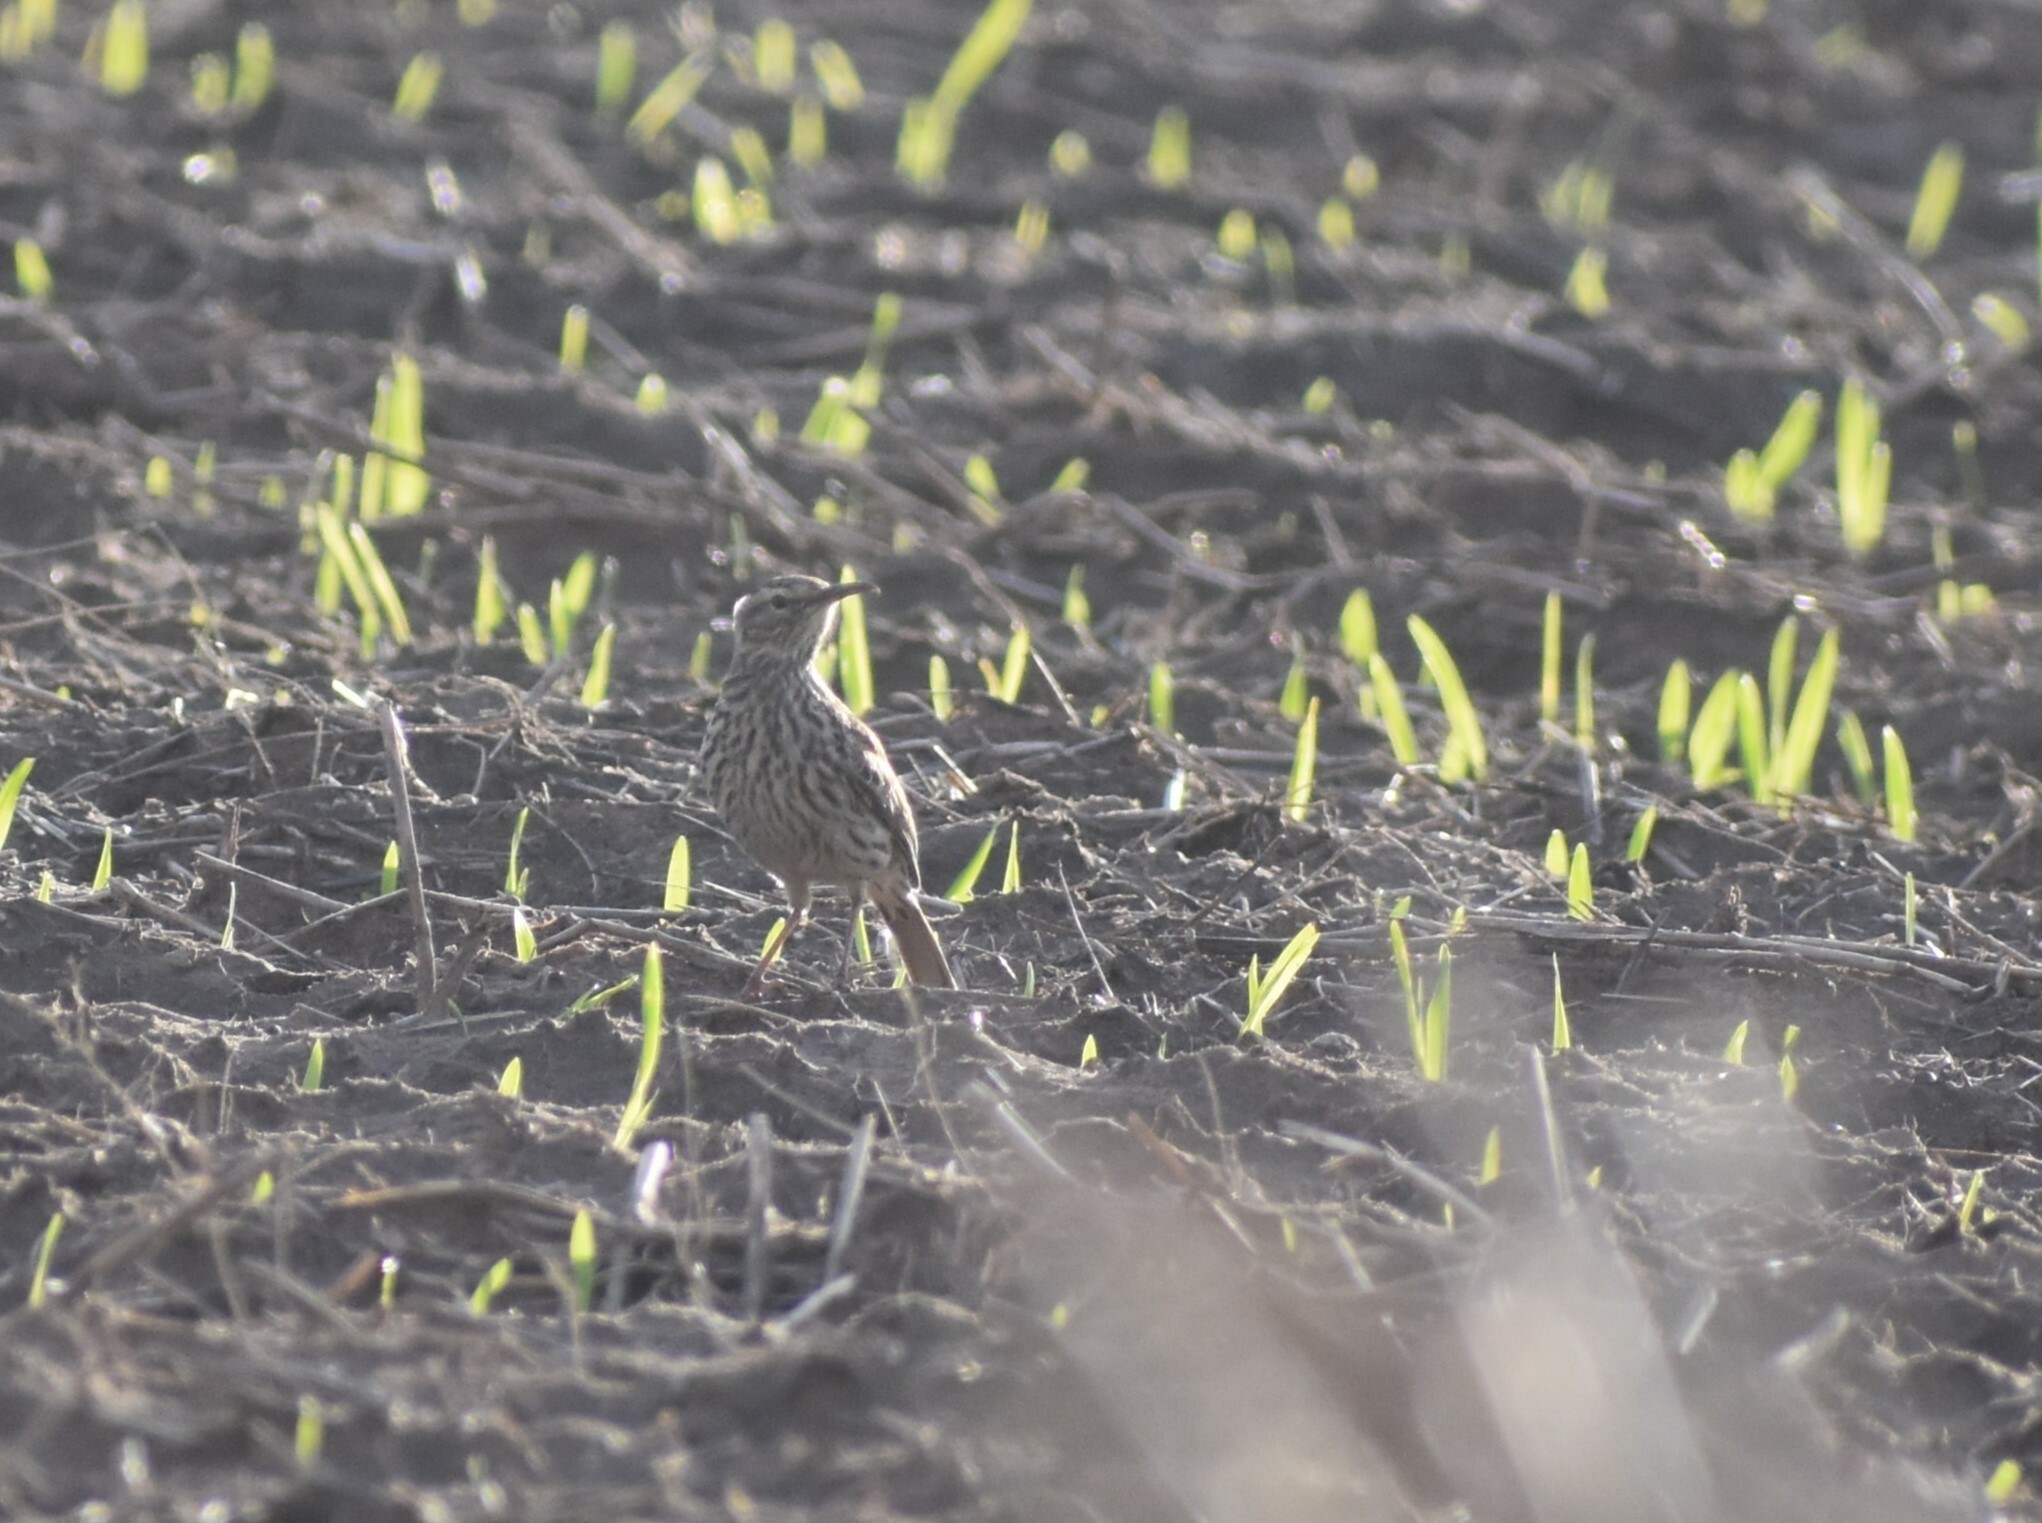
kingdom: Animalia
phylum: Chordata
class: Aves
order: Passeriformes
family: Alaudidae
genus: Certhilauda
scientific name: Certhilauda curvirostris
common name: Cape long-billed lark
